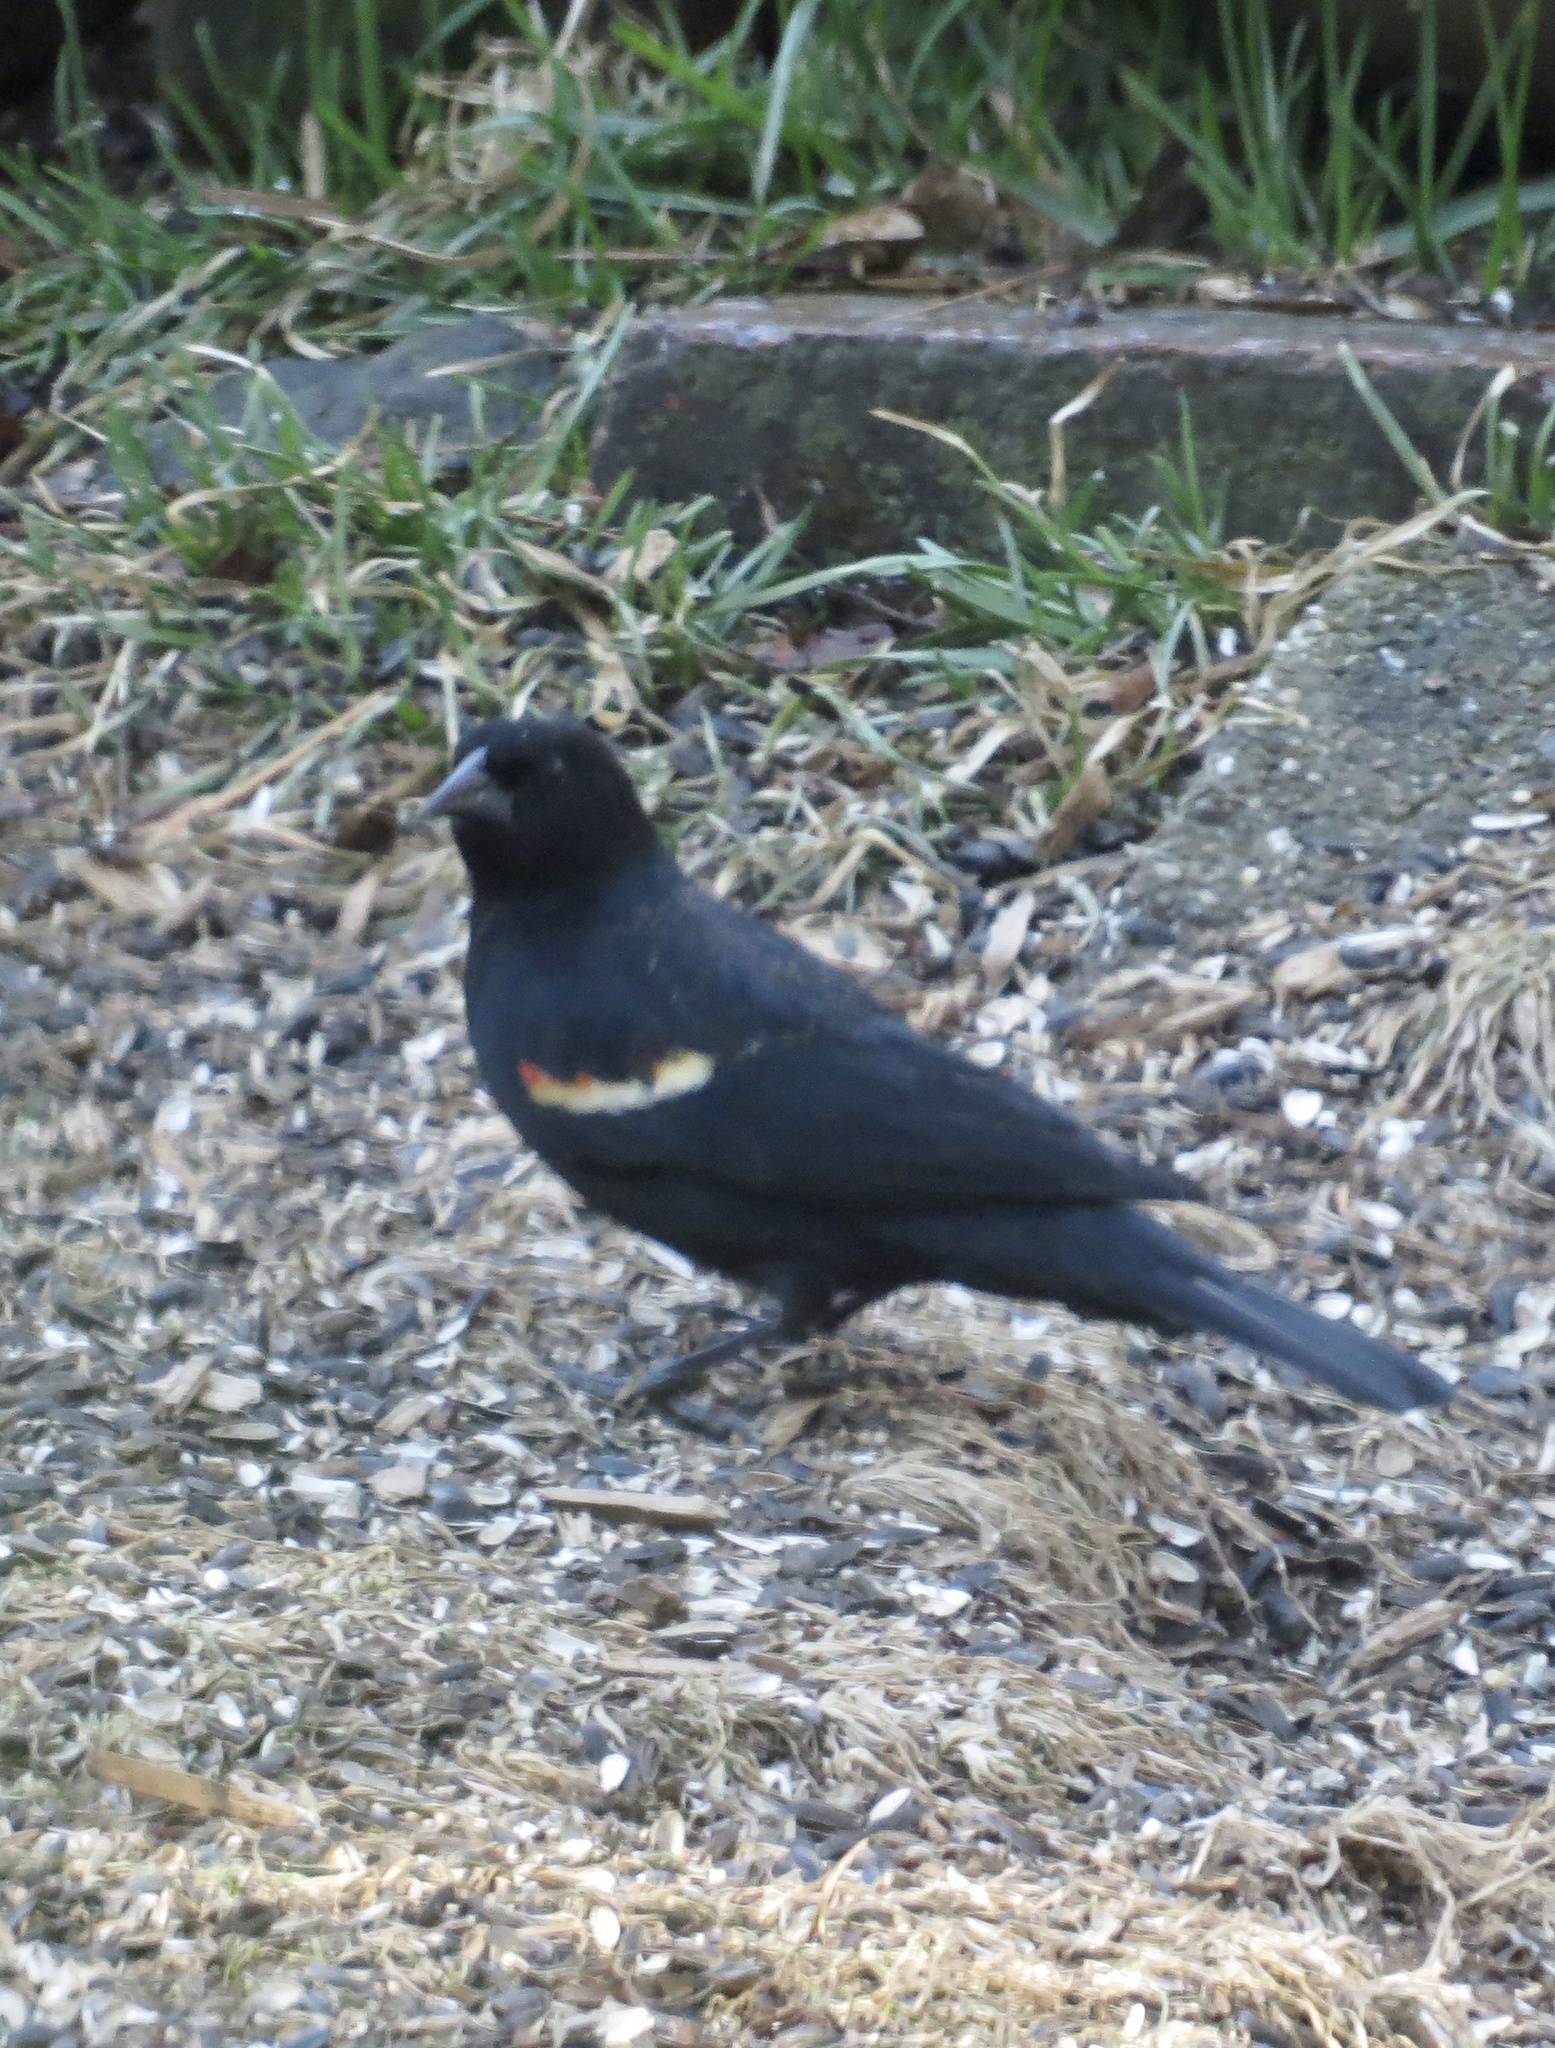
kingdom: Animalia
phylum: Chordata
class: Aves
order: Passeriformes
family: Icteridae
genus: Agelaius
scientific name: Agelaius phoeniceus
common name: Red-winged blackbird
